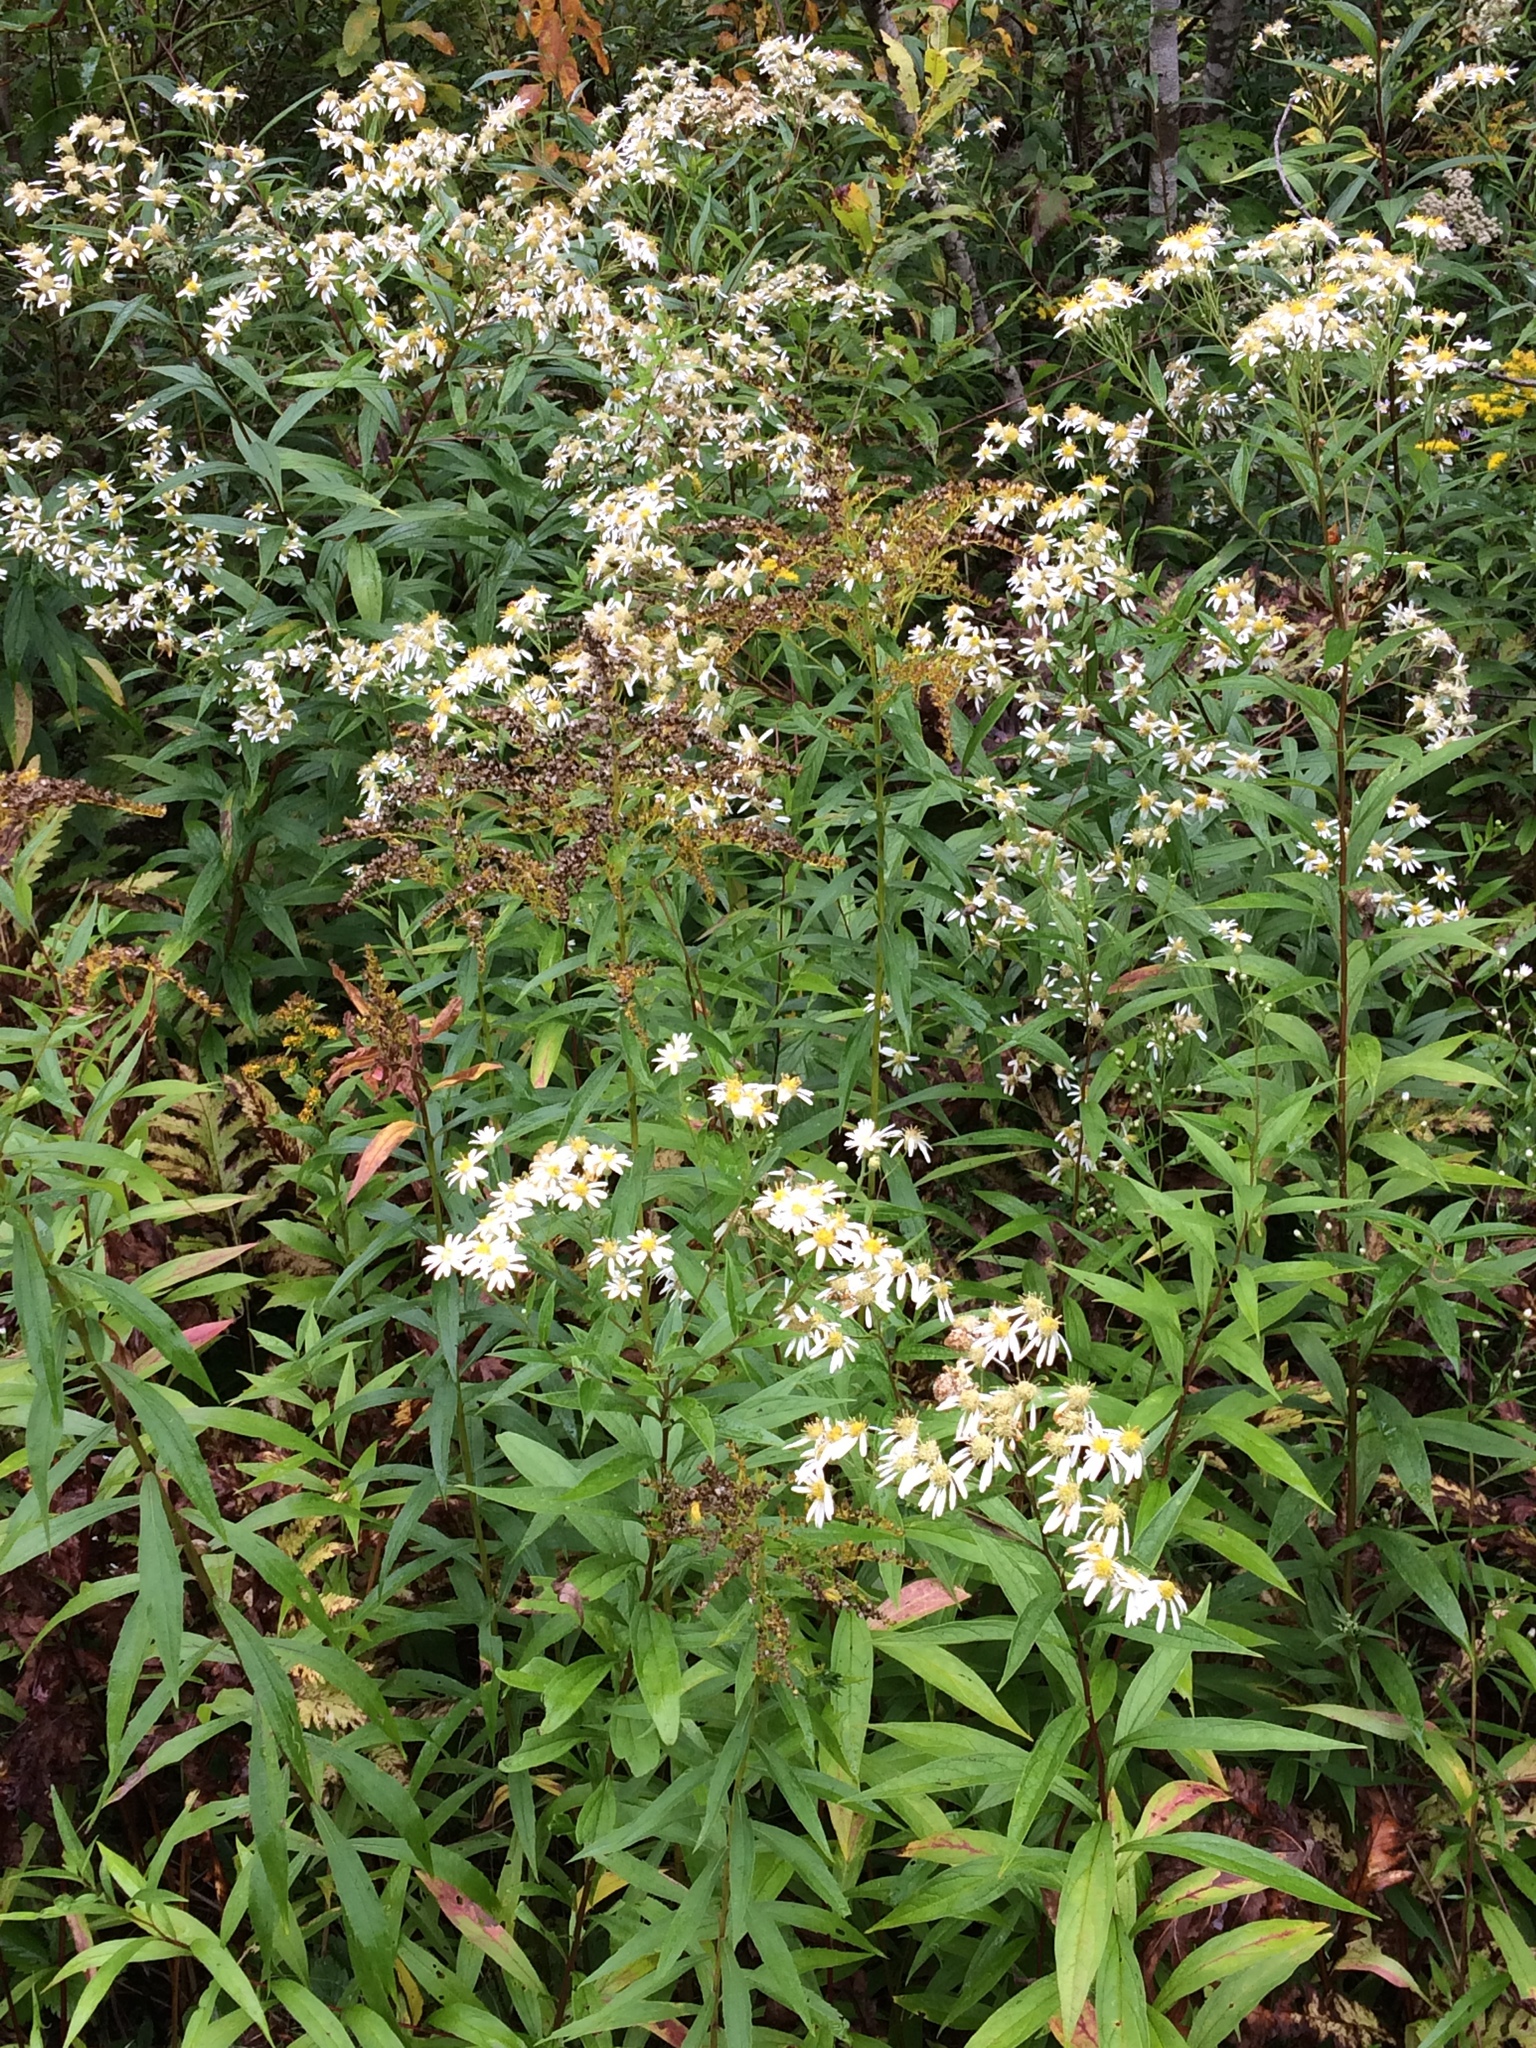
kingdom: Plantae
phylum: Tracheophyta
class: Magnoliopsida
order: Asterales
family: Asteraceae
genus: Doellingeria
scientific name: Doellingeria umbellata
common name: Flat-top white aster
